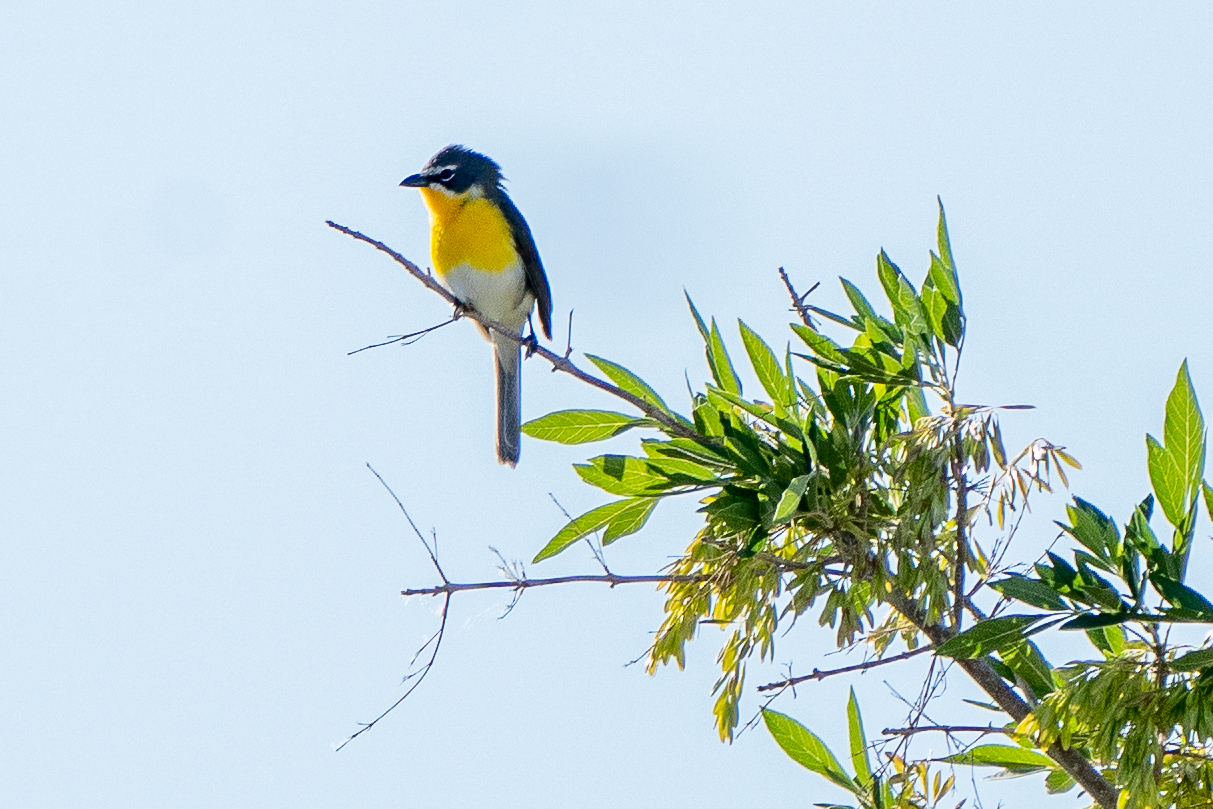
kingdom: Animalia
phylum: Chordata
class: Aves
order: Passeriformes
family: Parulidae
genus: Icteria
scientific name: Icteria virens
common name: Yellow-breasted chat
